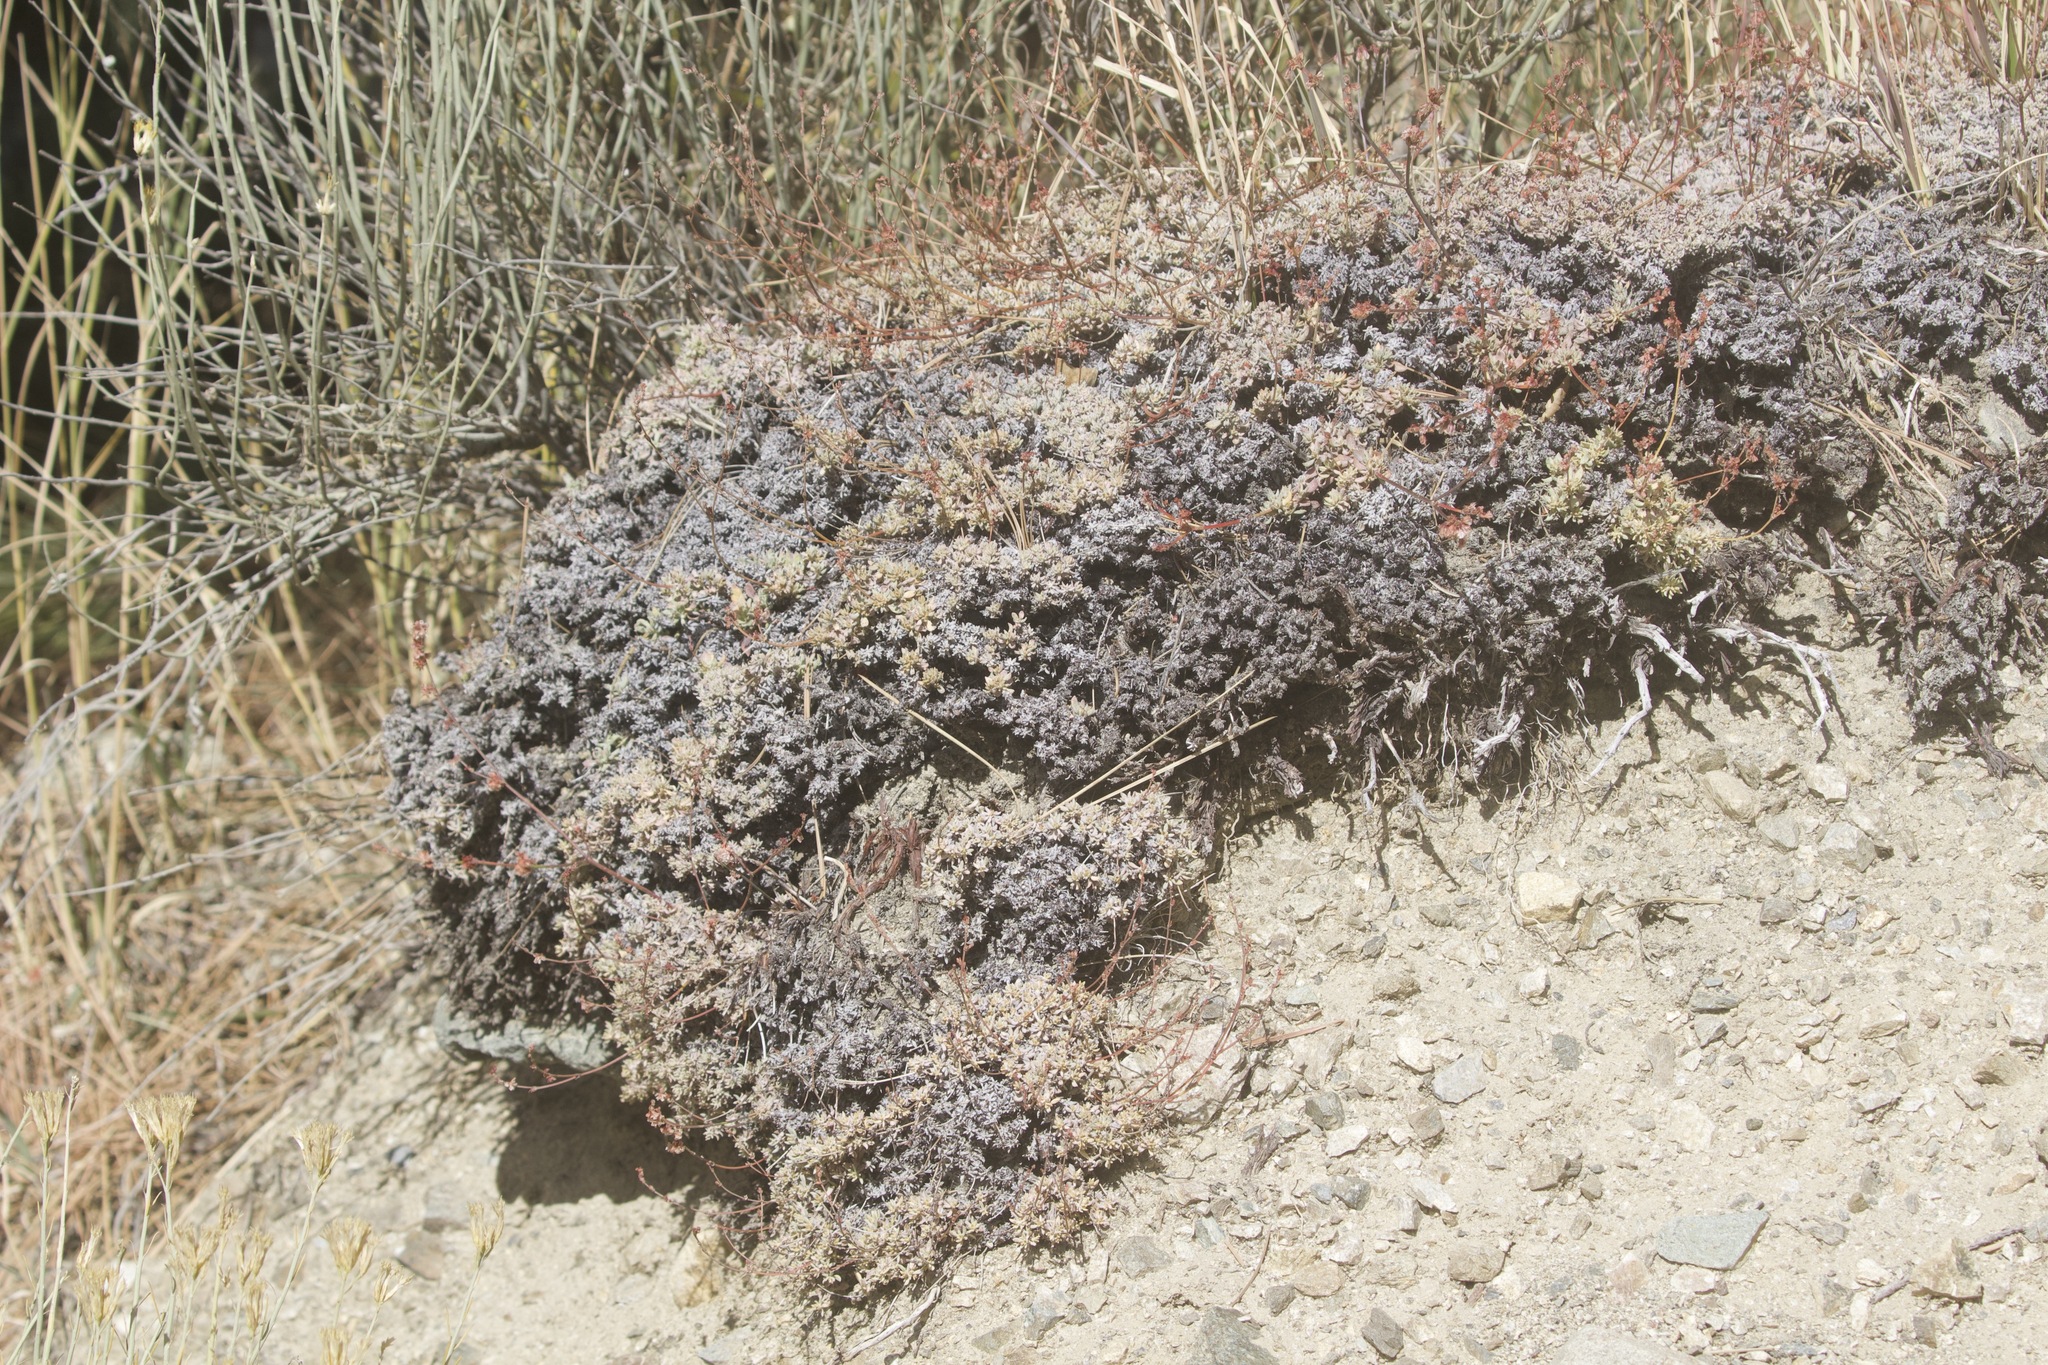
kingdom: Plantae
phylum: Tracheophyta
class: Magnoliopsida
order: Caryophyllales
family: Polygonaceae
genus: Eriogonum
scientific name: Eriogonum wrightii
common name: Bastard-sage
